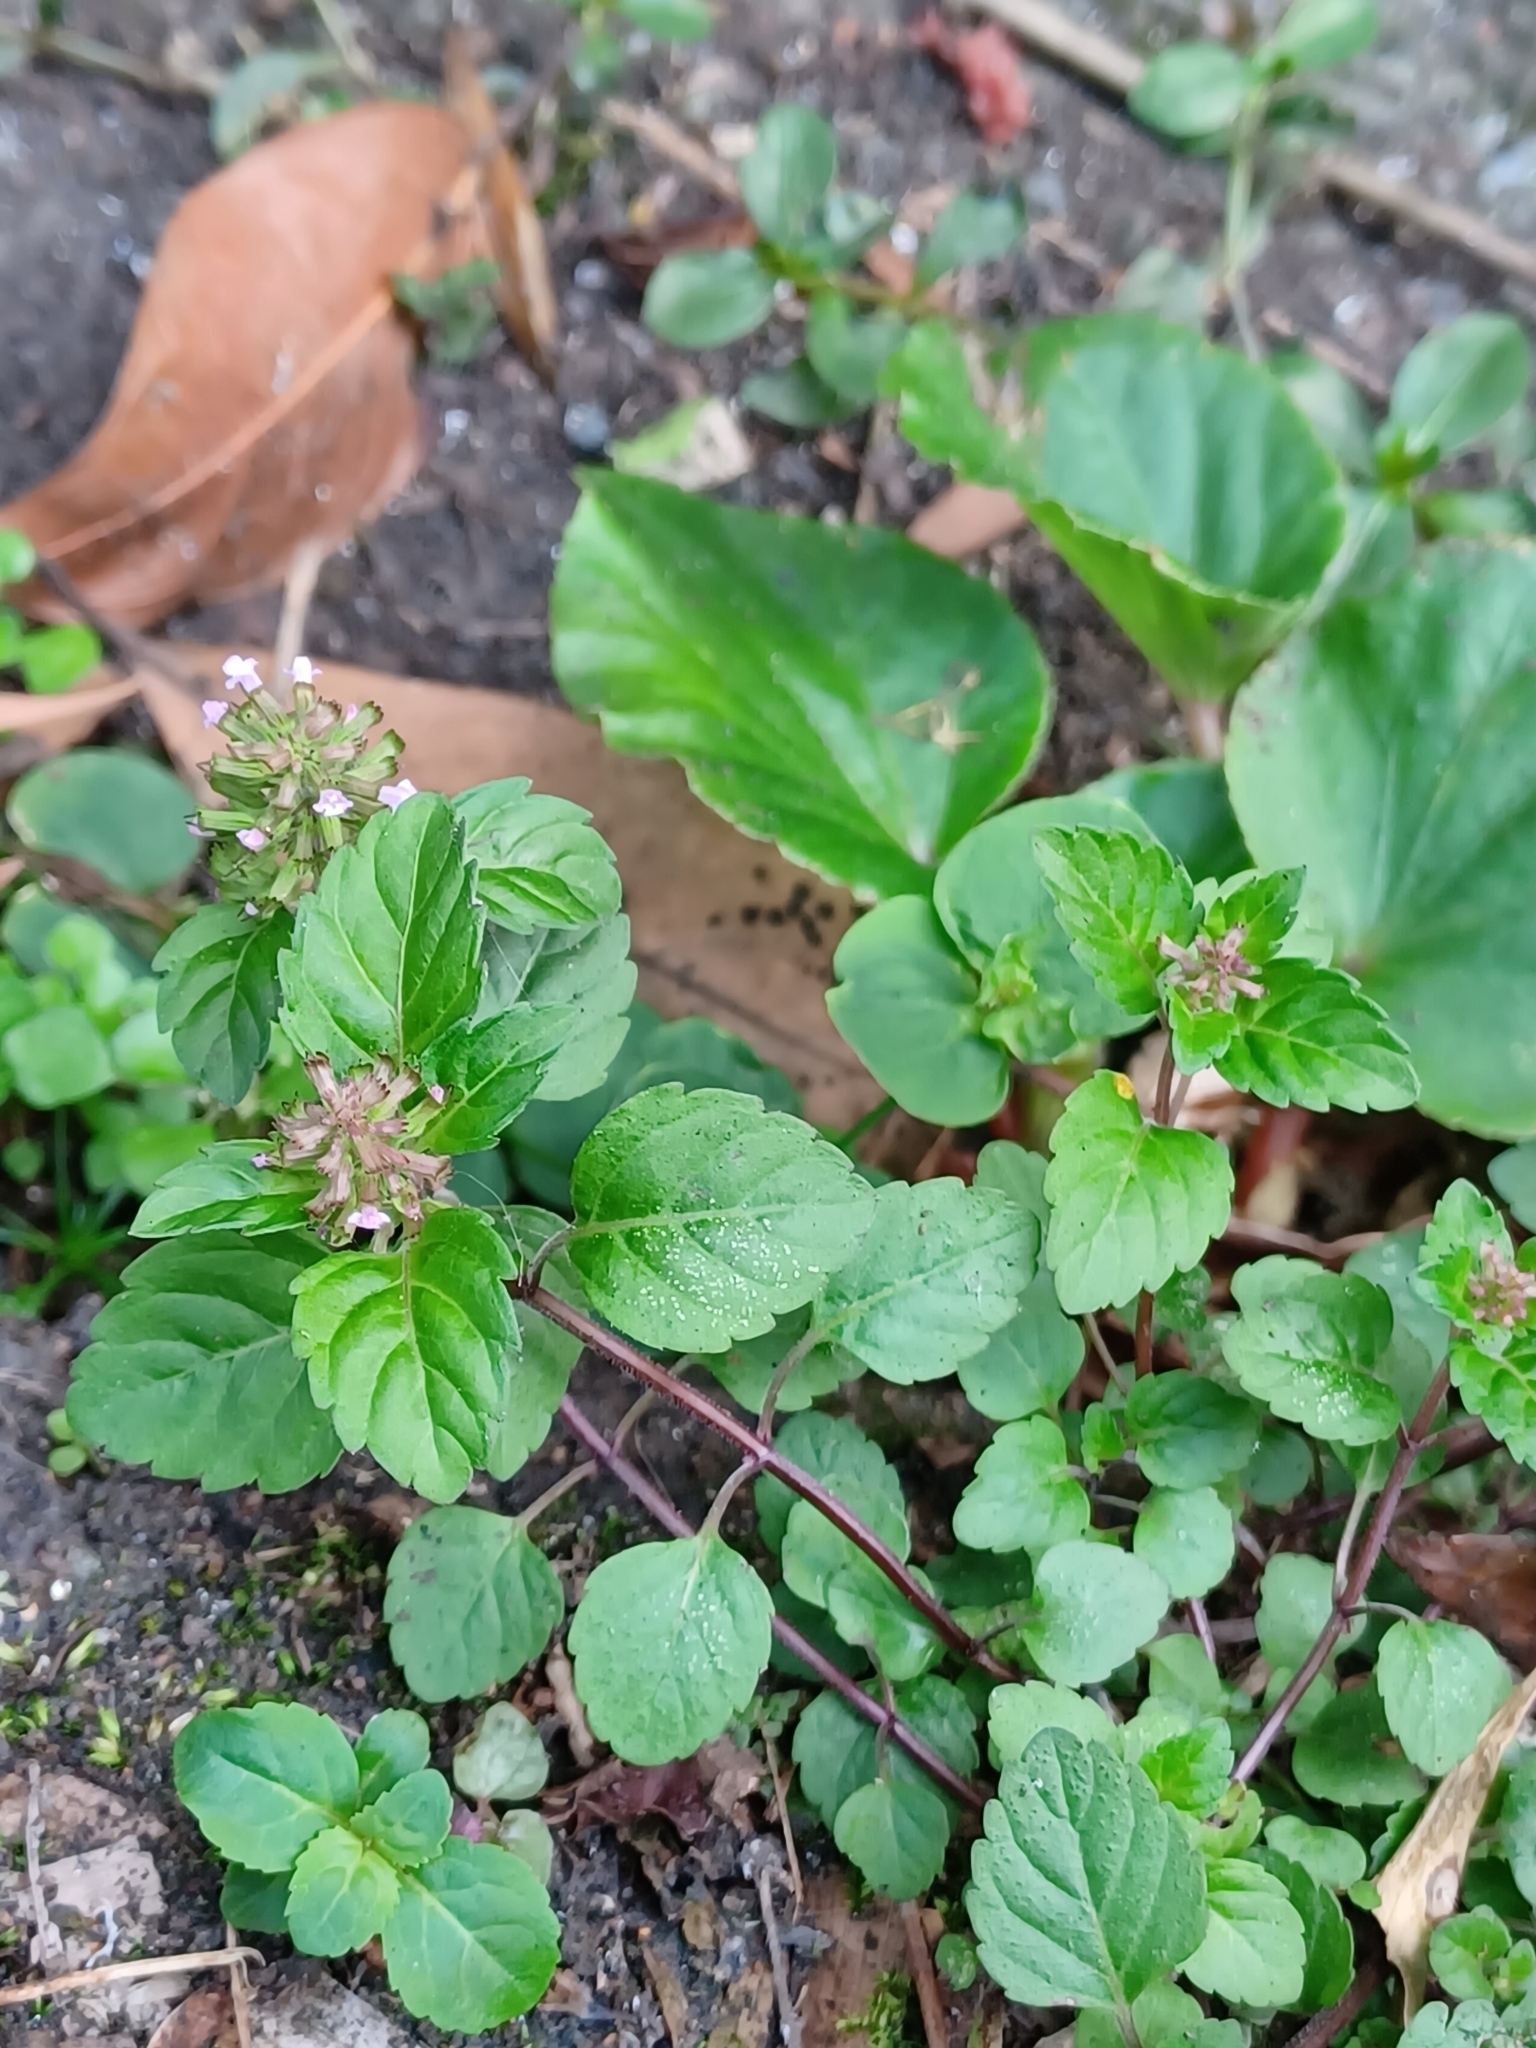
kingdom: Plantae
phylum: Tracheophyta
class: Magnoliopsida
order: Lamiales
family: Lamiaceae
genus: Clinopodium
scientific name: Clinopodium gracile
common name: Slender wild basil
